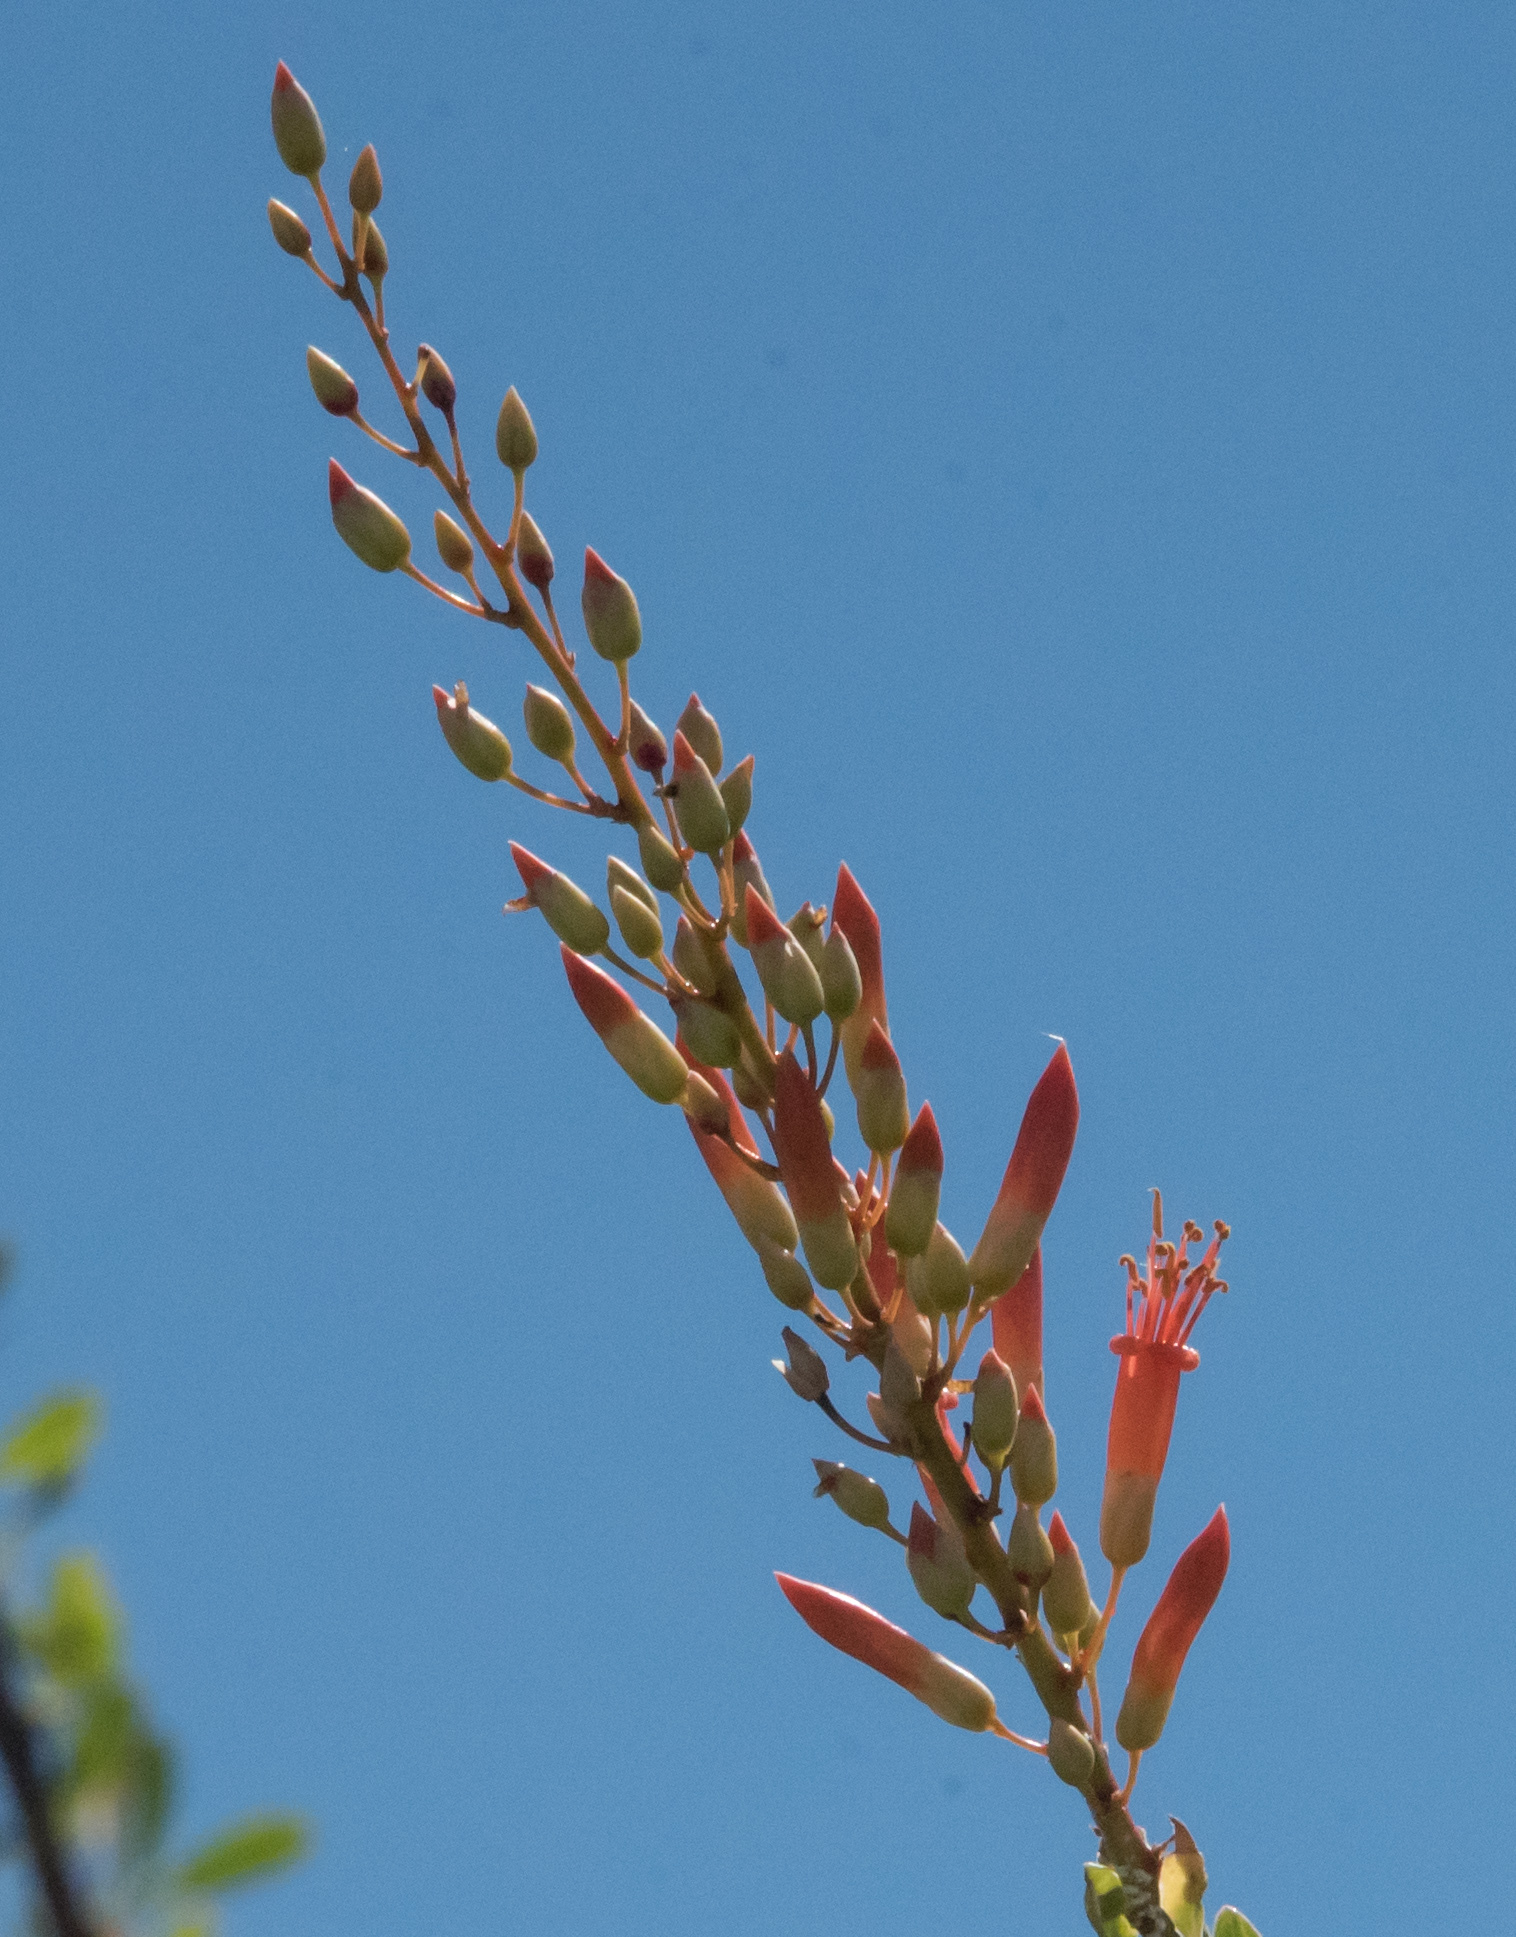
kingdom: Plantae
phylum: Tracheophyta
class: Magnoliopsida
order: Ericales
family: Fouquieriaceae
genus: Fouquieria
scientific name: Fouquieria splendens
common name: Vine-cactus
